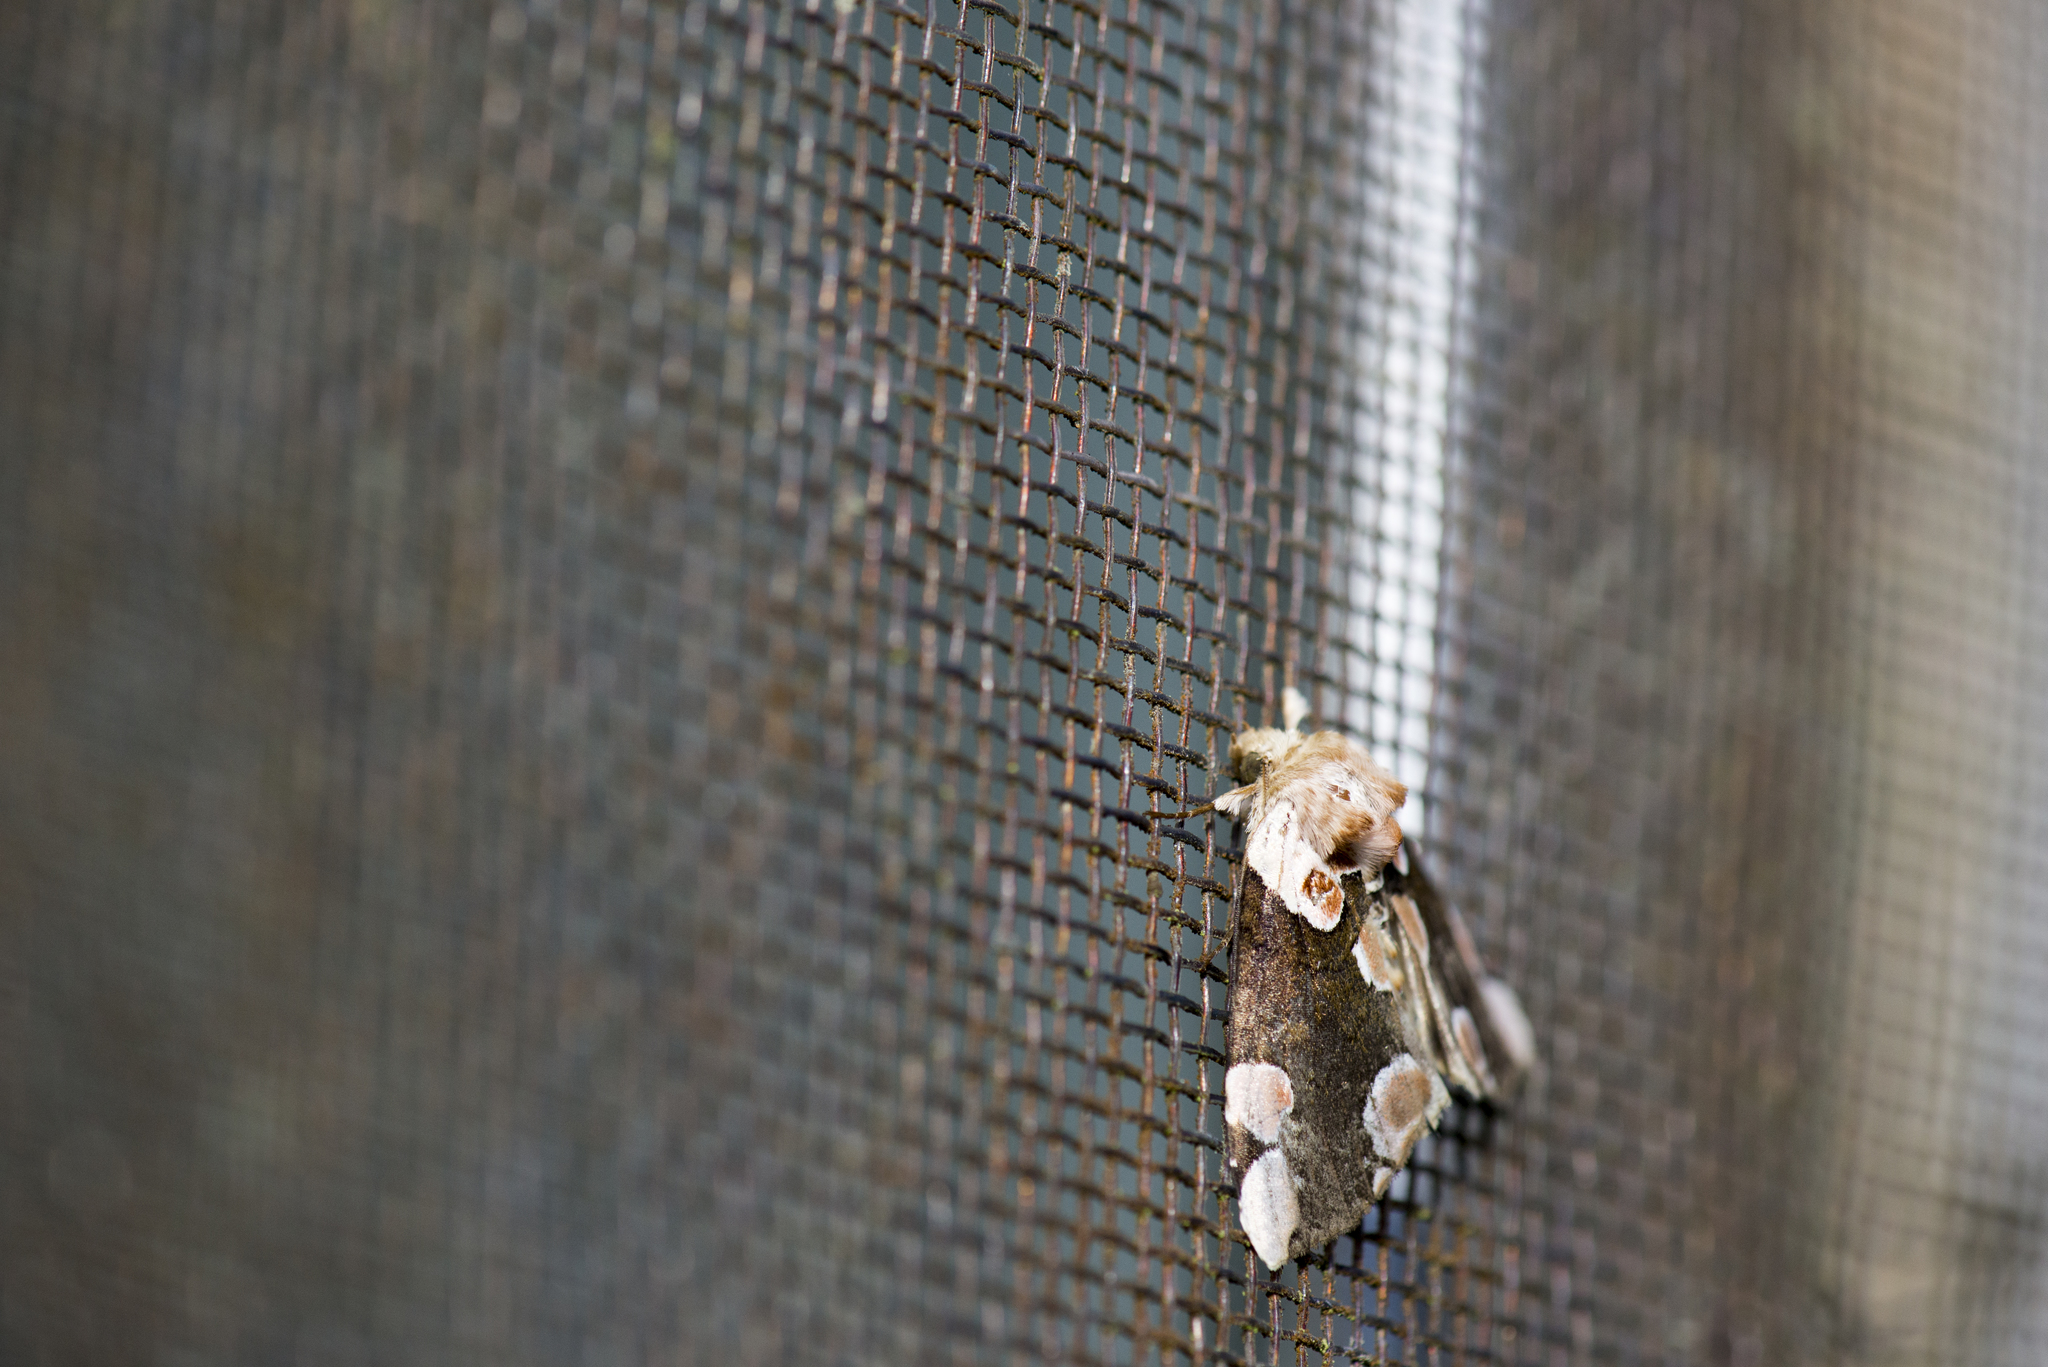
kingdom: Animalia
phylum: Arthropoda
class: Insecta
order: Lepidoptera
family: Drepanidae
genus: Thyatira
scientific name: Thyatira batis
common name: Peach blossom
